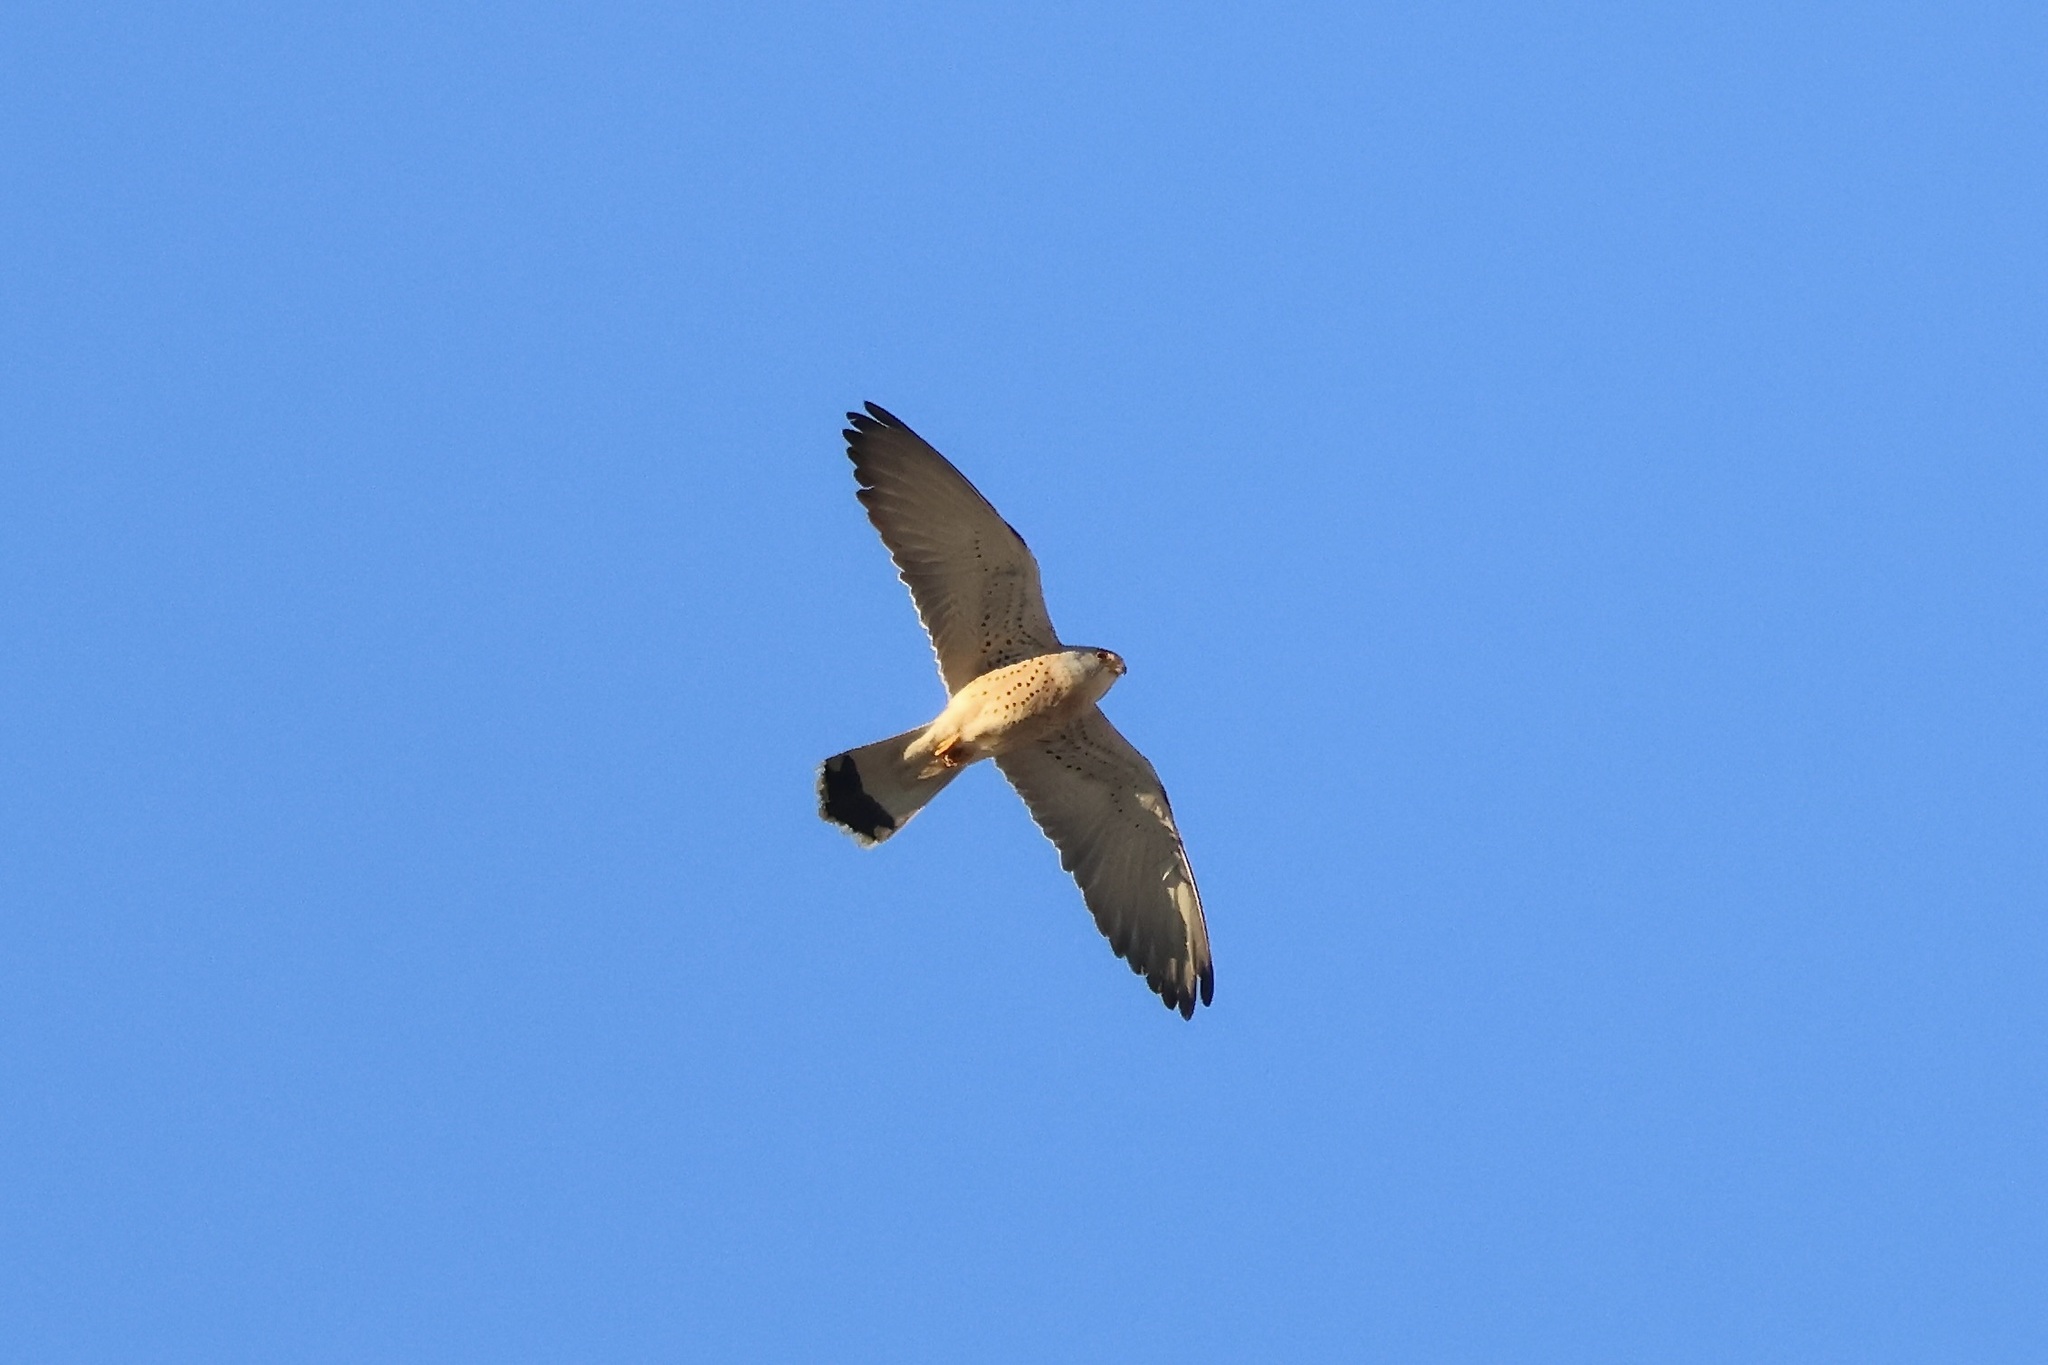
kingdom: Animalia
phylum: Chordata
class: Aves
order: Falconiformes
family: Falconidae
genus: Falco
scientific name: Falco naumanni
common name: Lesser kestrel
